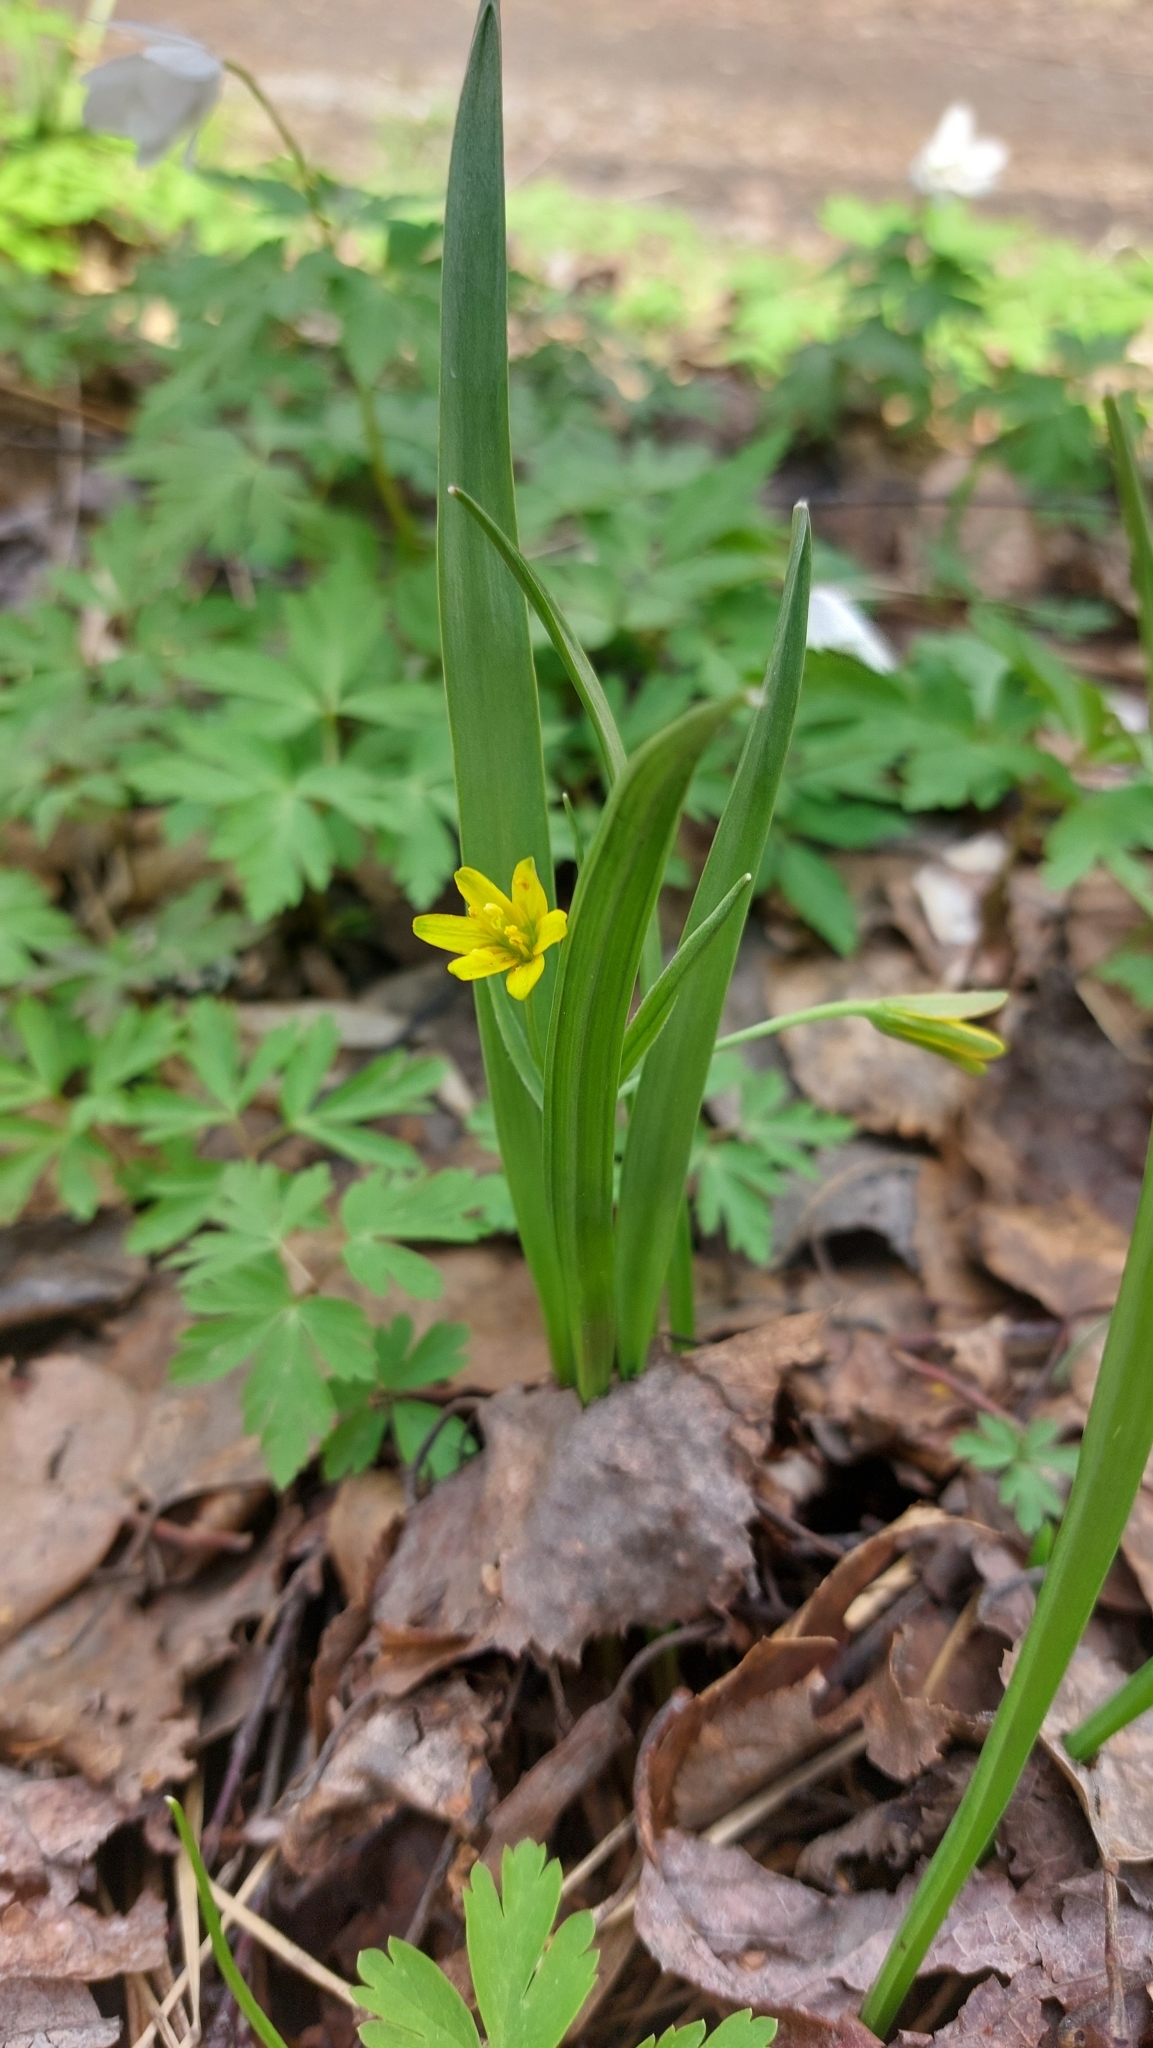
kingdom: Plantae
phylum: Tracheophyta
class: Liliopsida
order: Liliales
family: Liliaceae
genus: Gagea
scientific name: Gagea lutea
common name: Yellow star-of-bethlehem
